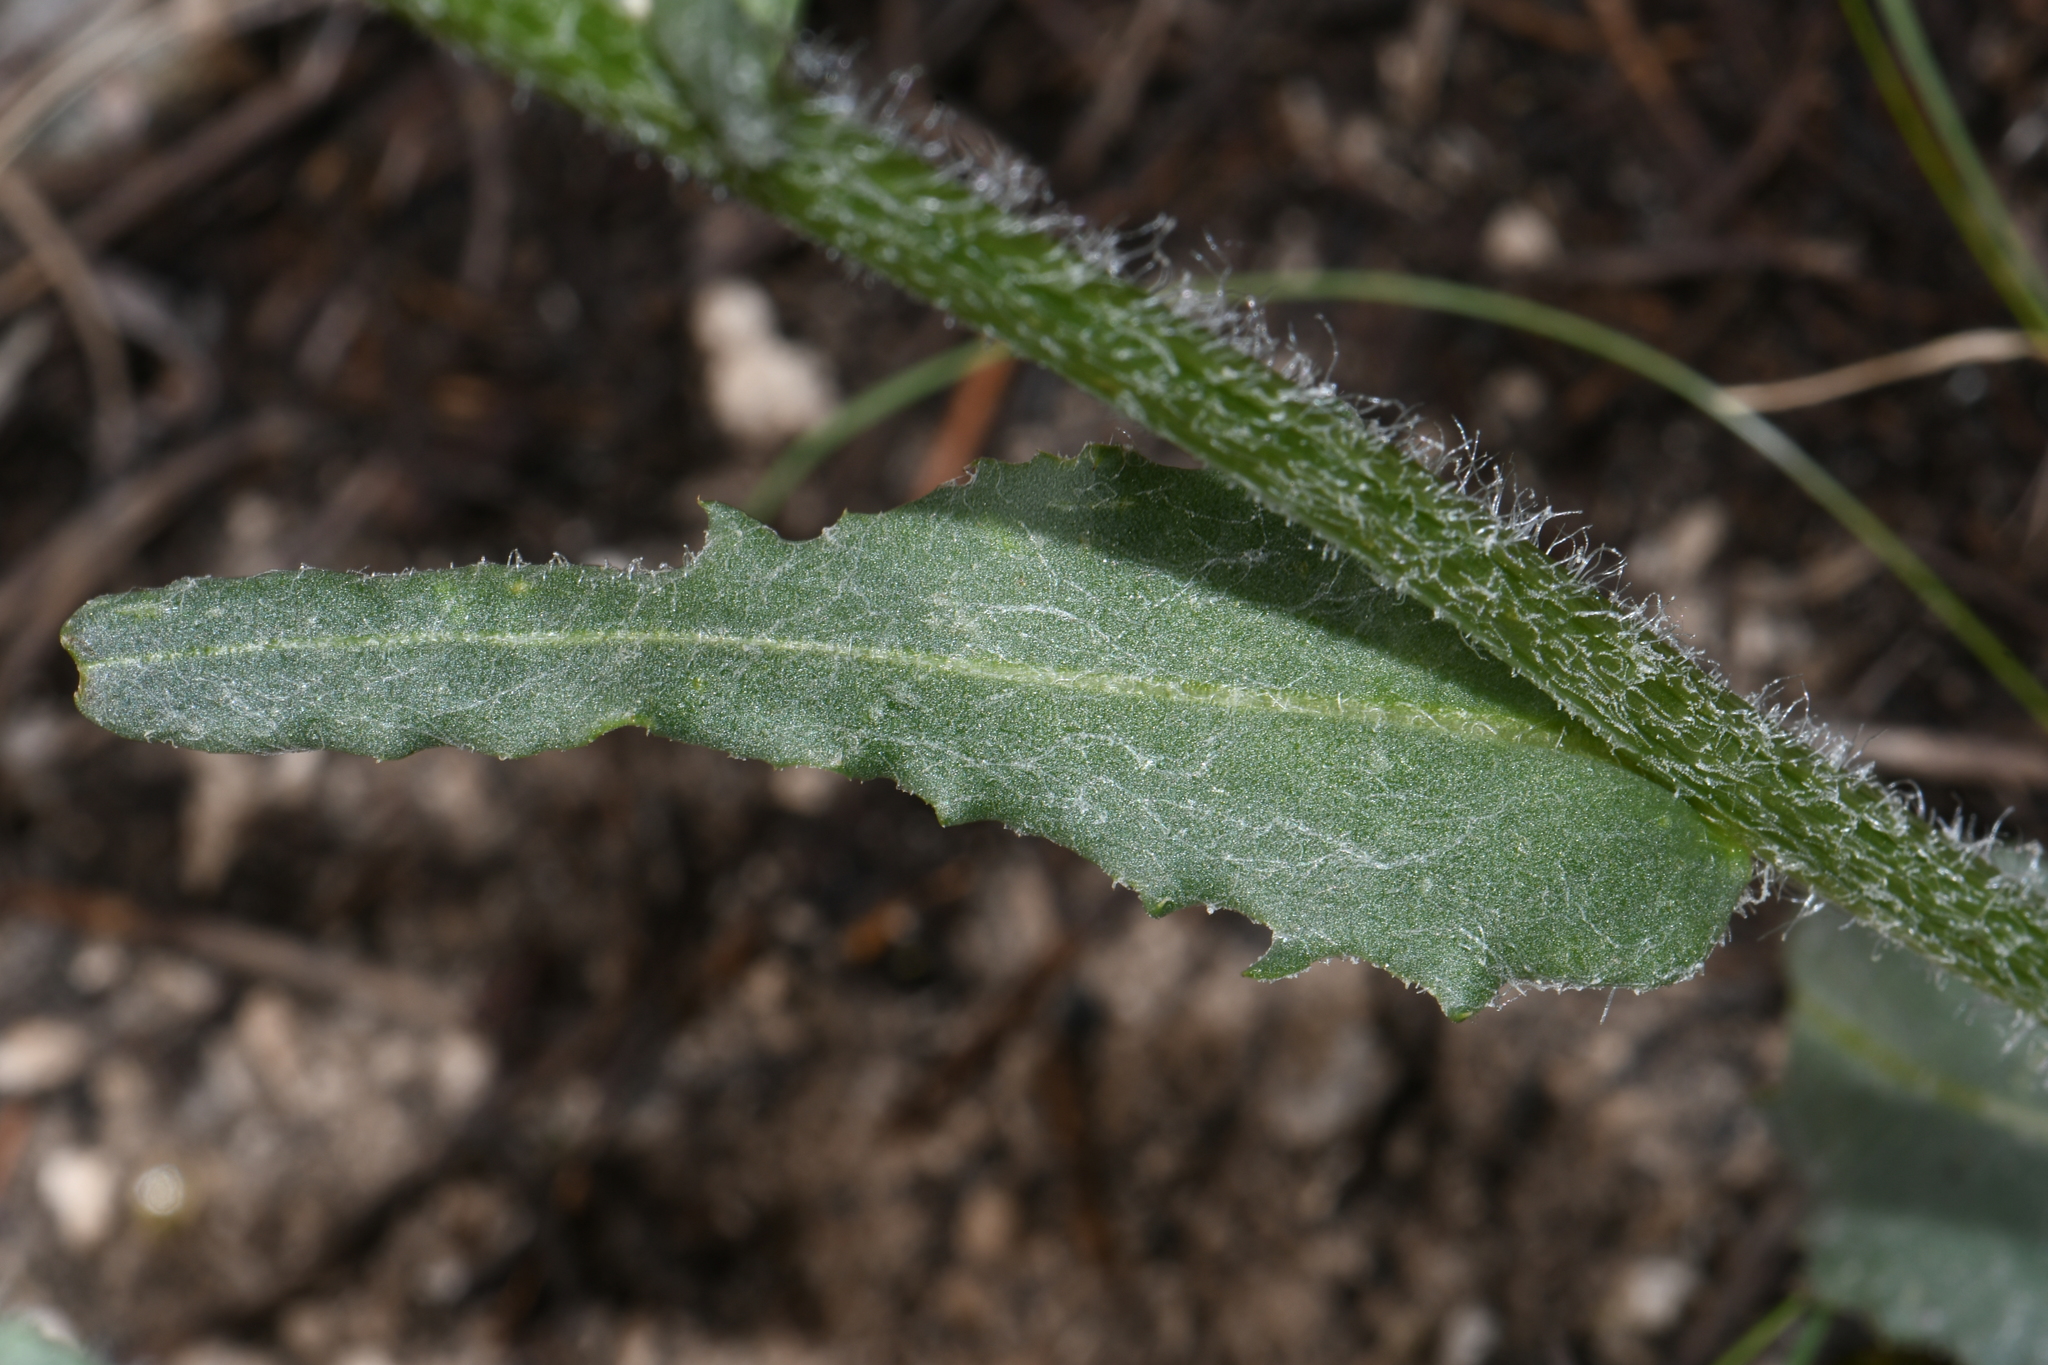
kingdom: Plantae
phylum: Tracheophyta
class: Magnoliopsida
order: Asterales
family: Asteraceae
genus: Senecio
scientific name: Senecio integerrimus
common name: Gaugeplant
